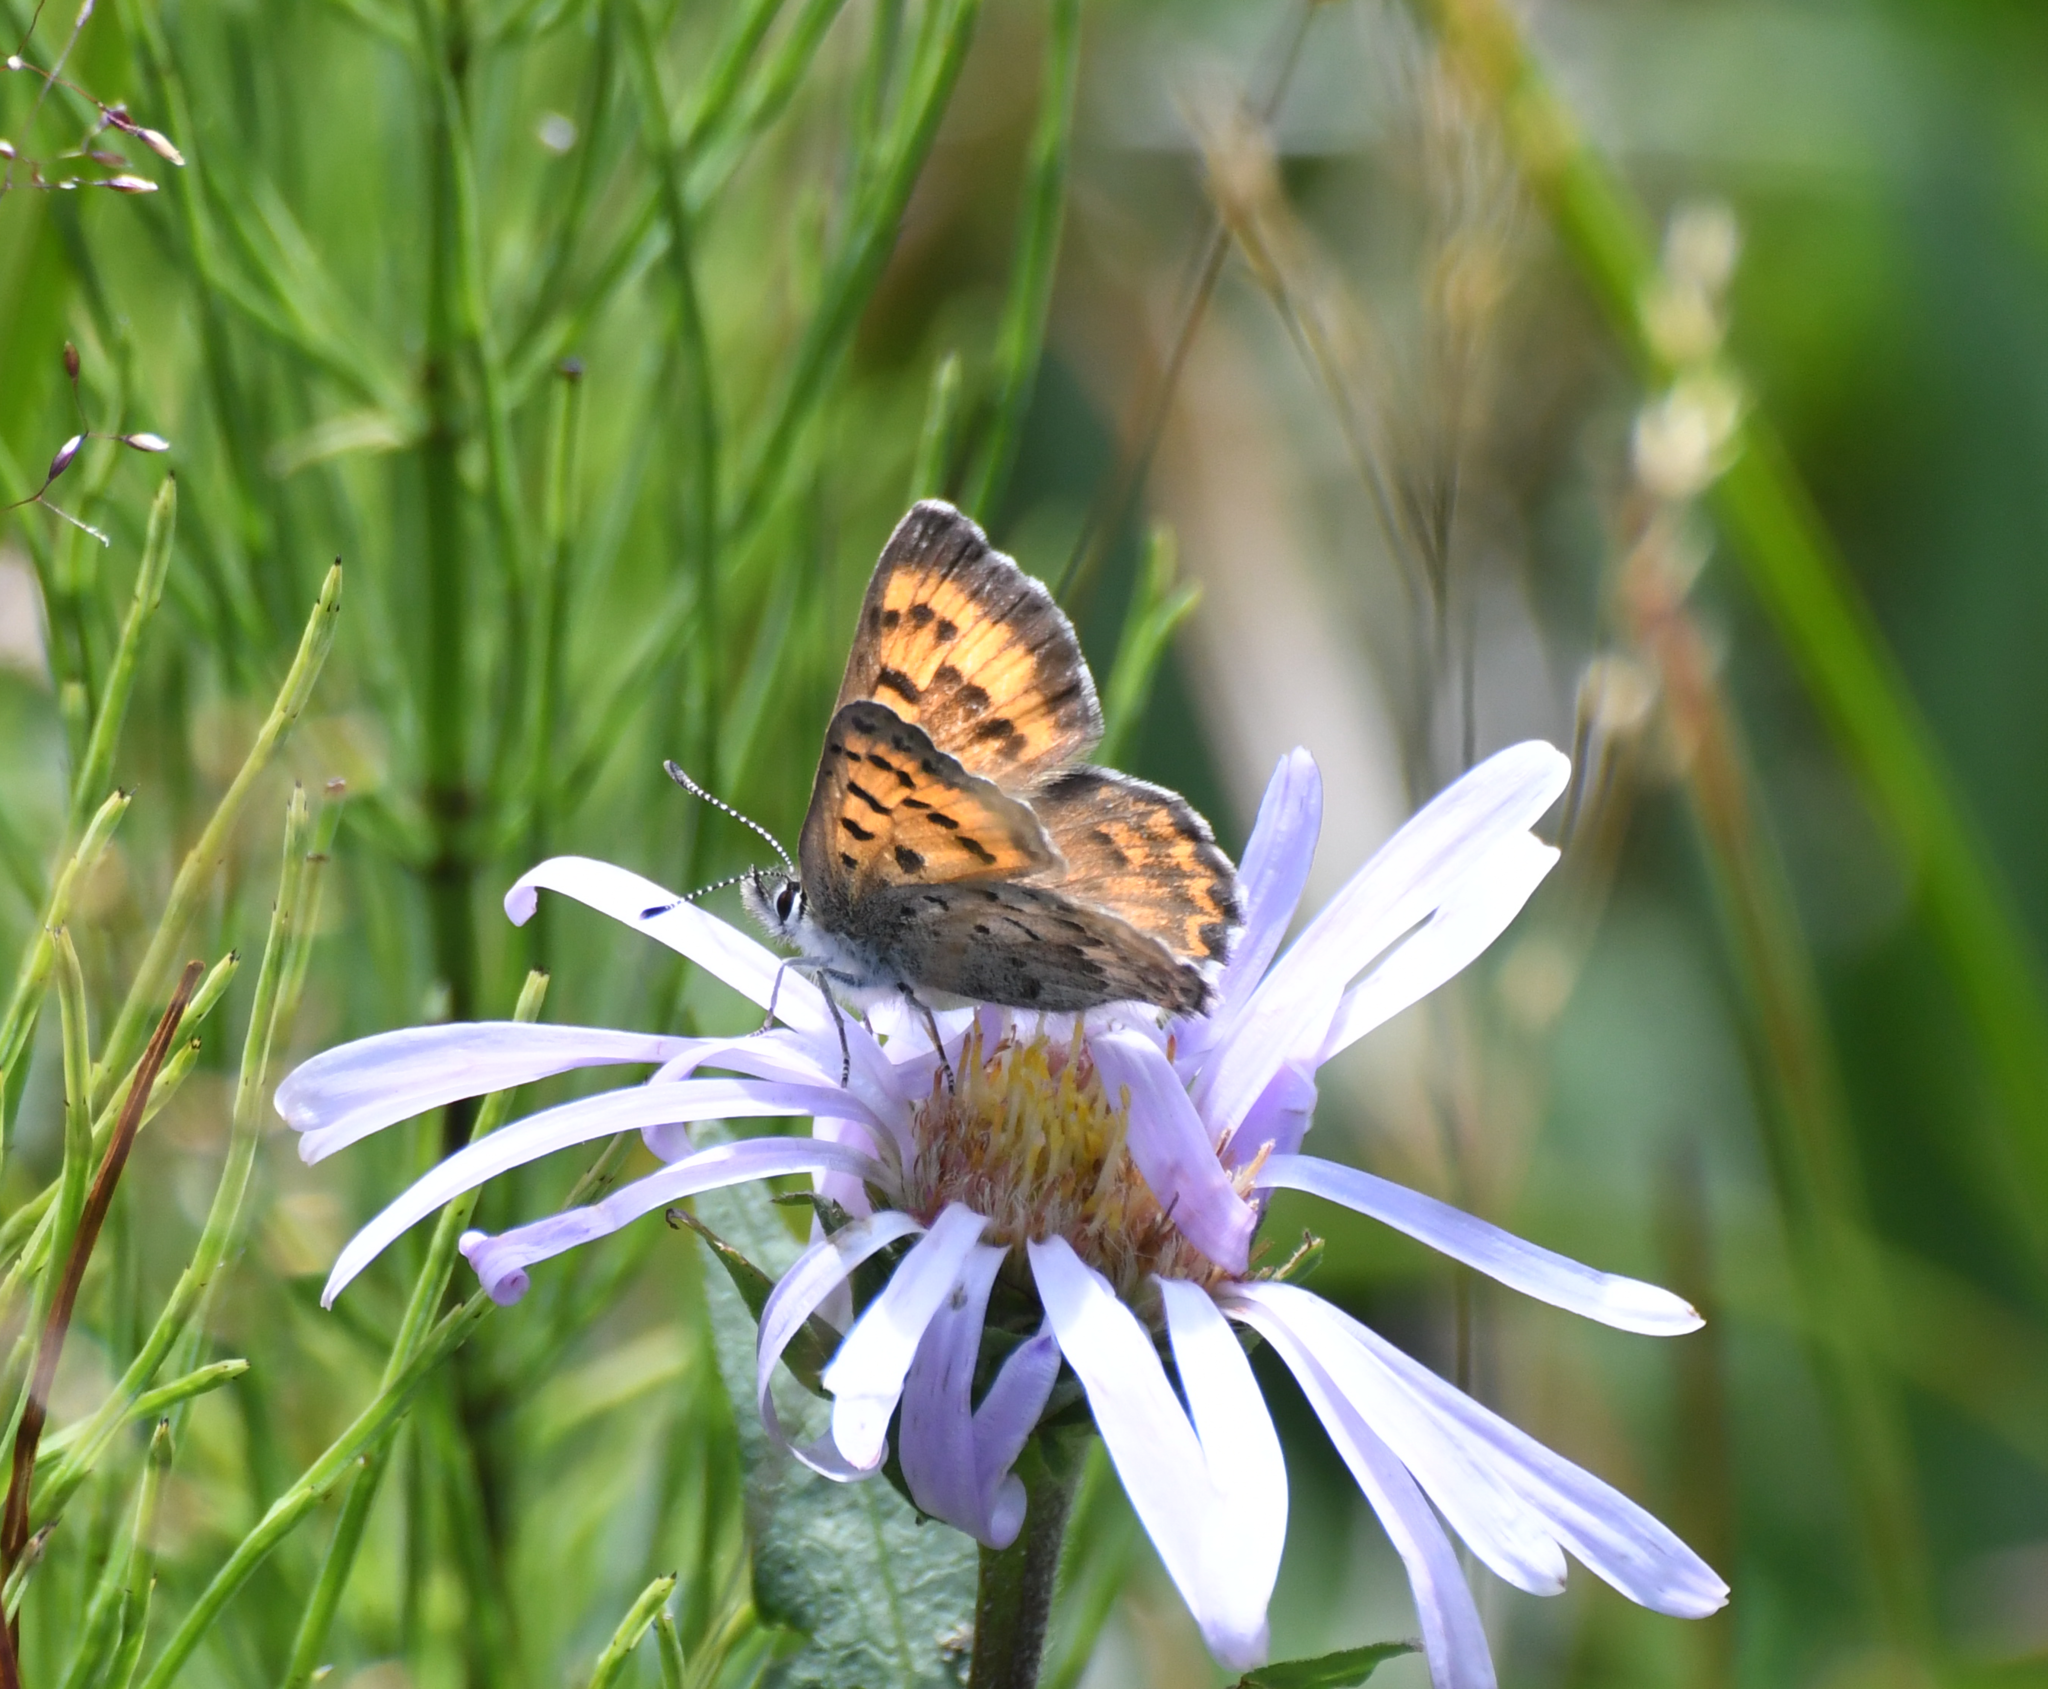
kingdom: Animalia
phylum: Arthropoda
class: Insecta
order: Lepidoptera
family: Lycaenidae
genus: Tharsalea
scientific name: Tharsalea mariposa
